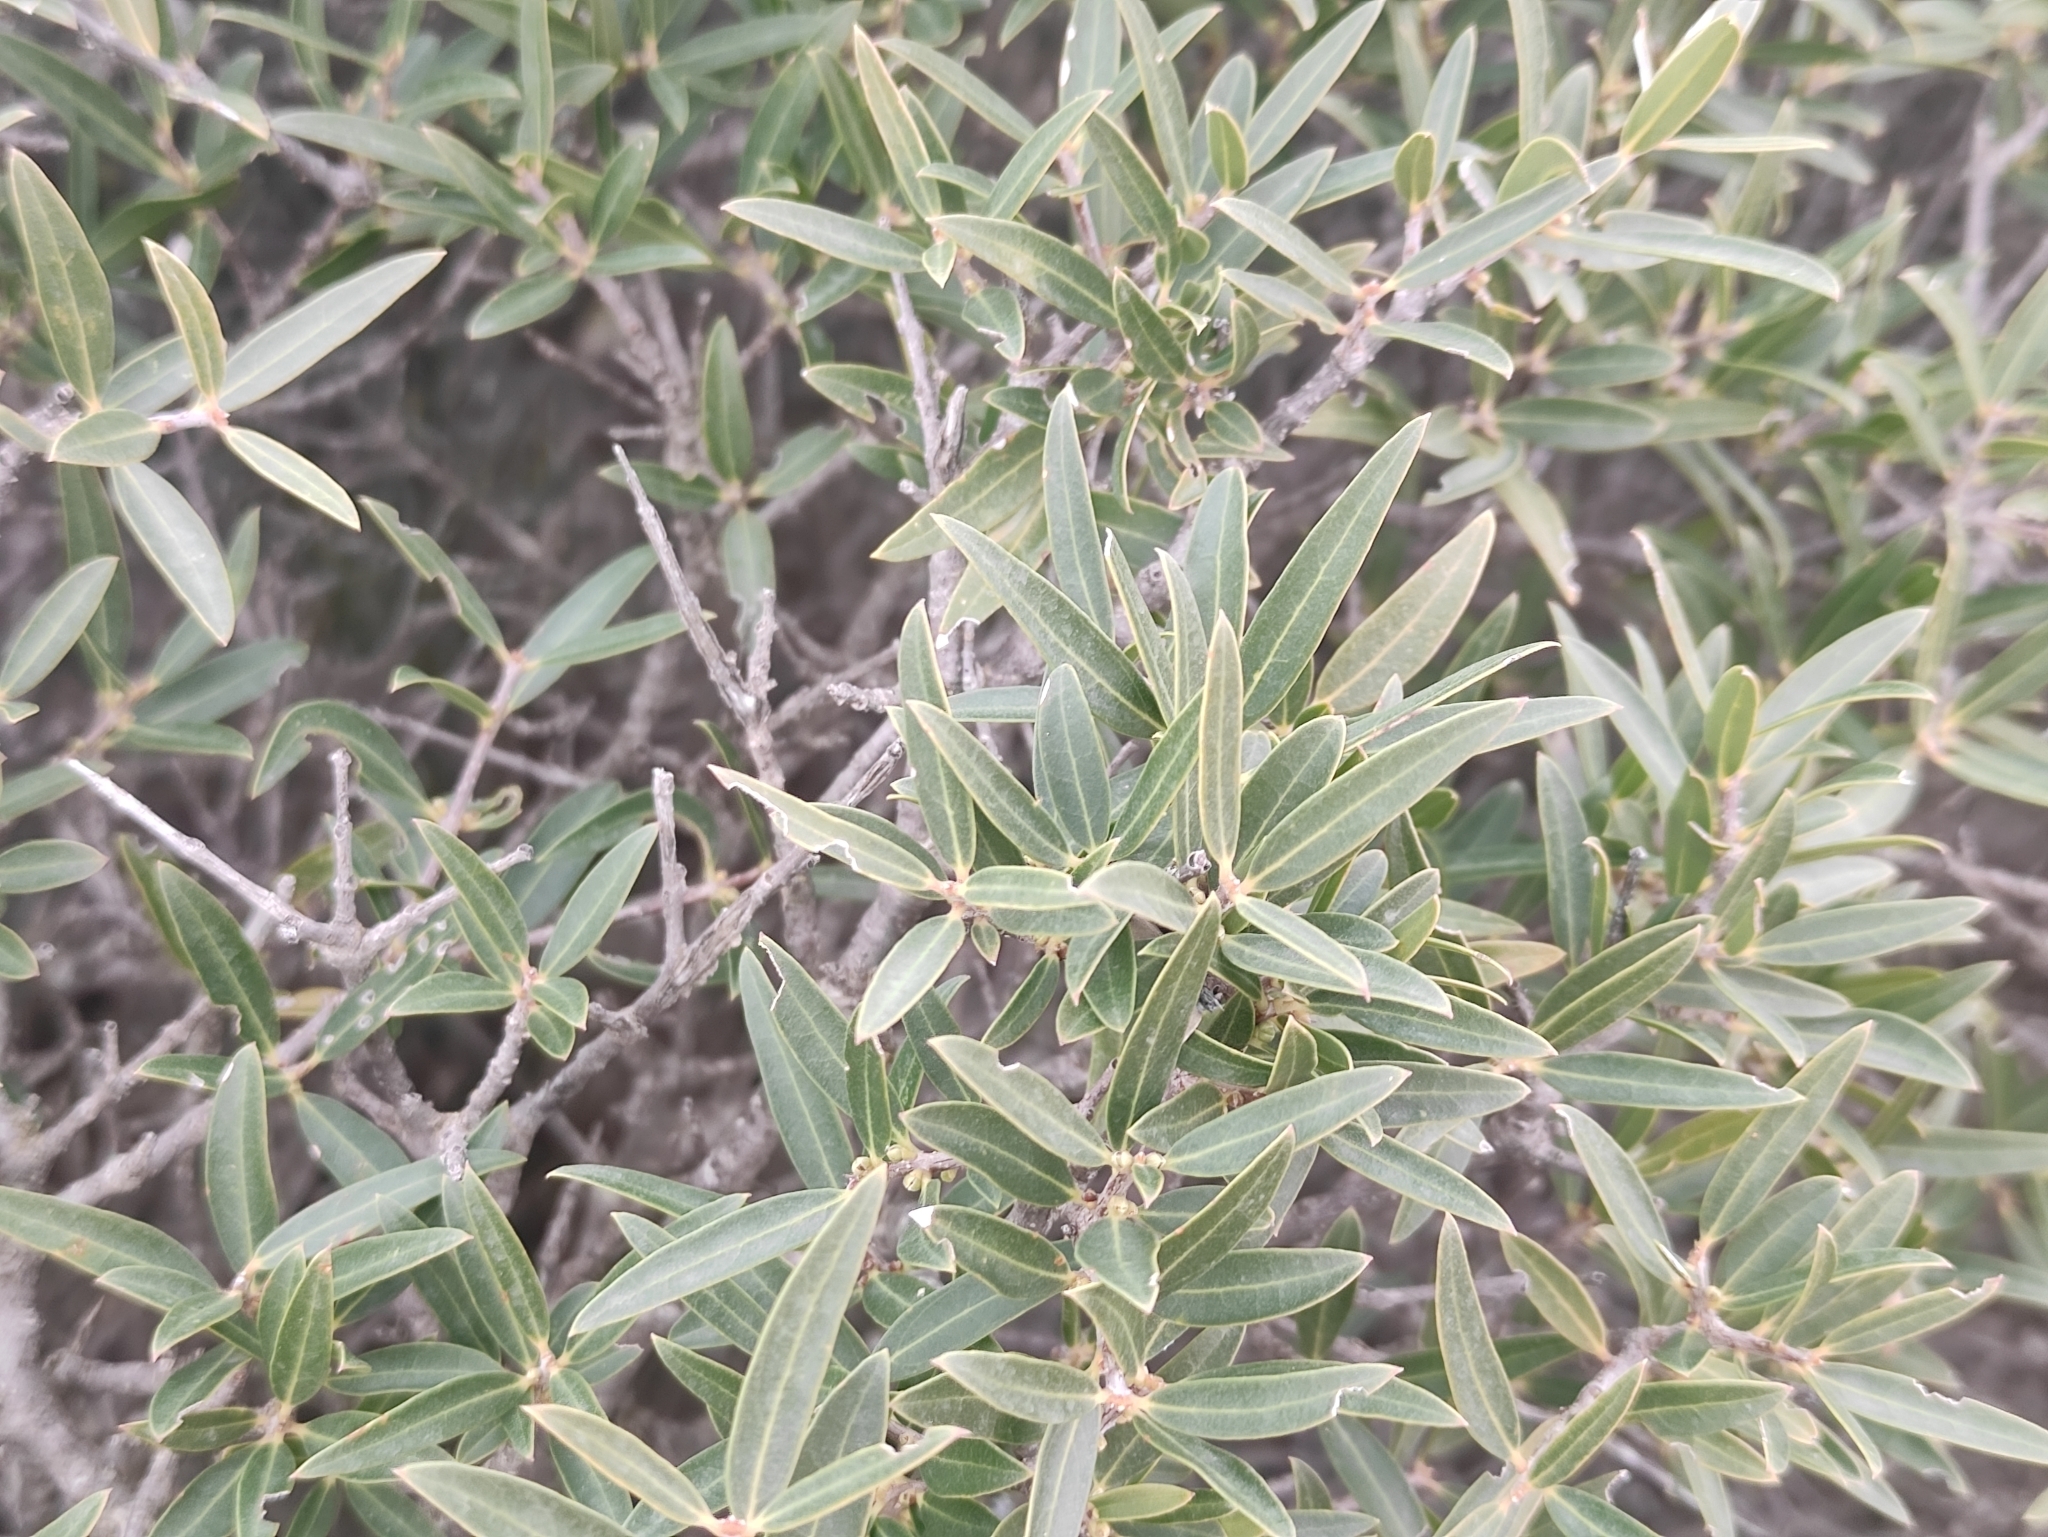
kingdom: Plantae
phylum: Tracheophyta
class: Magnoliopsida
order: Lamiales
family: Oleaceae
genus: Phillyrea
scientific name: Phillyrea angustifolia
